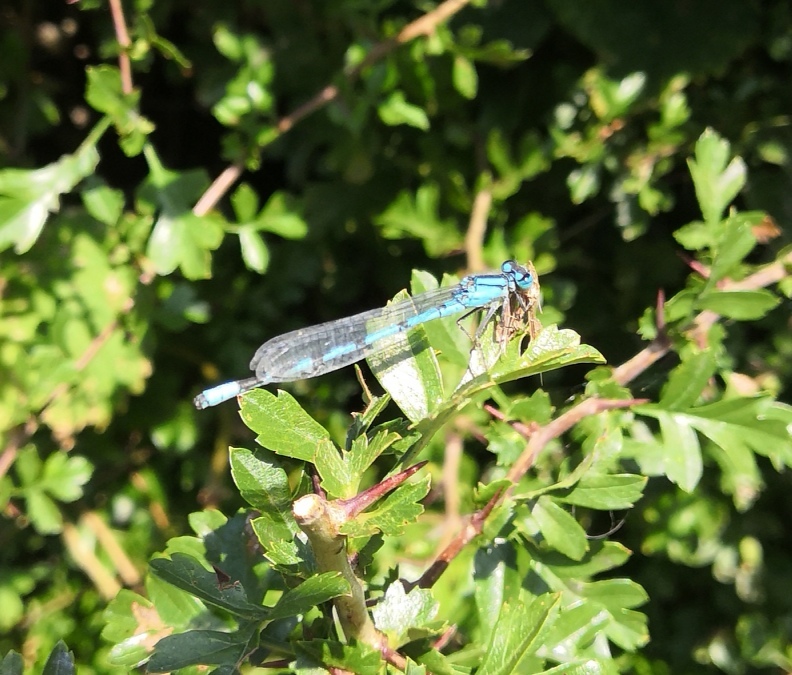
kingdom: Animalia
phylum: Arthropoda
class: Insecta
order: Odonata
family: Coenagrionidae
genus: Enallagma
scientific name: Enallagma cyathigerum
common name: Common blue damselfly
